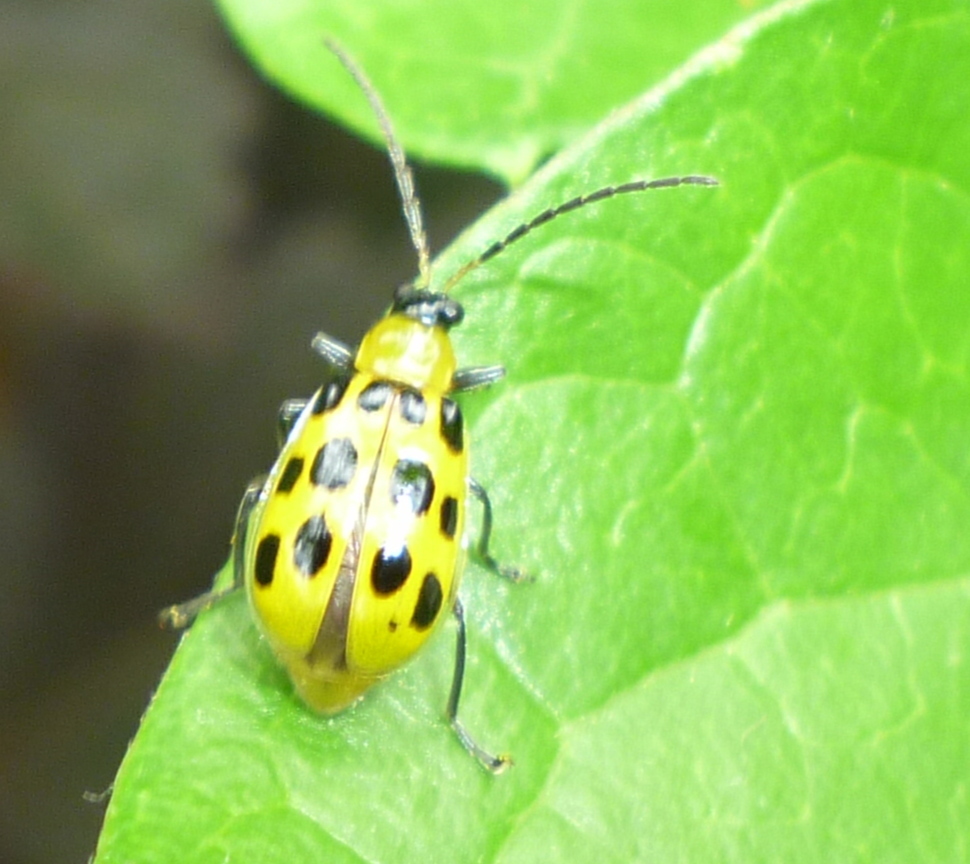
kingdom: Animalia
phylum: Arthropoda
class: Insecta
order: Coleoptera
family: Chrysomelidae
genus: Diabrotica
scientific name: Diabrotica undecimpunctata
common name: Spotted cucumber beetle
